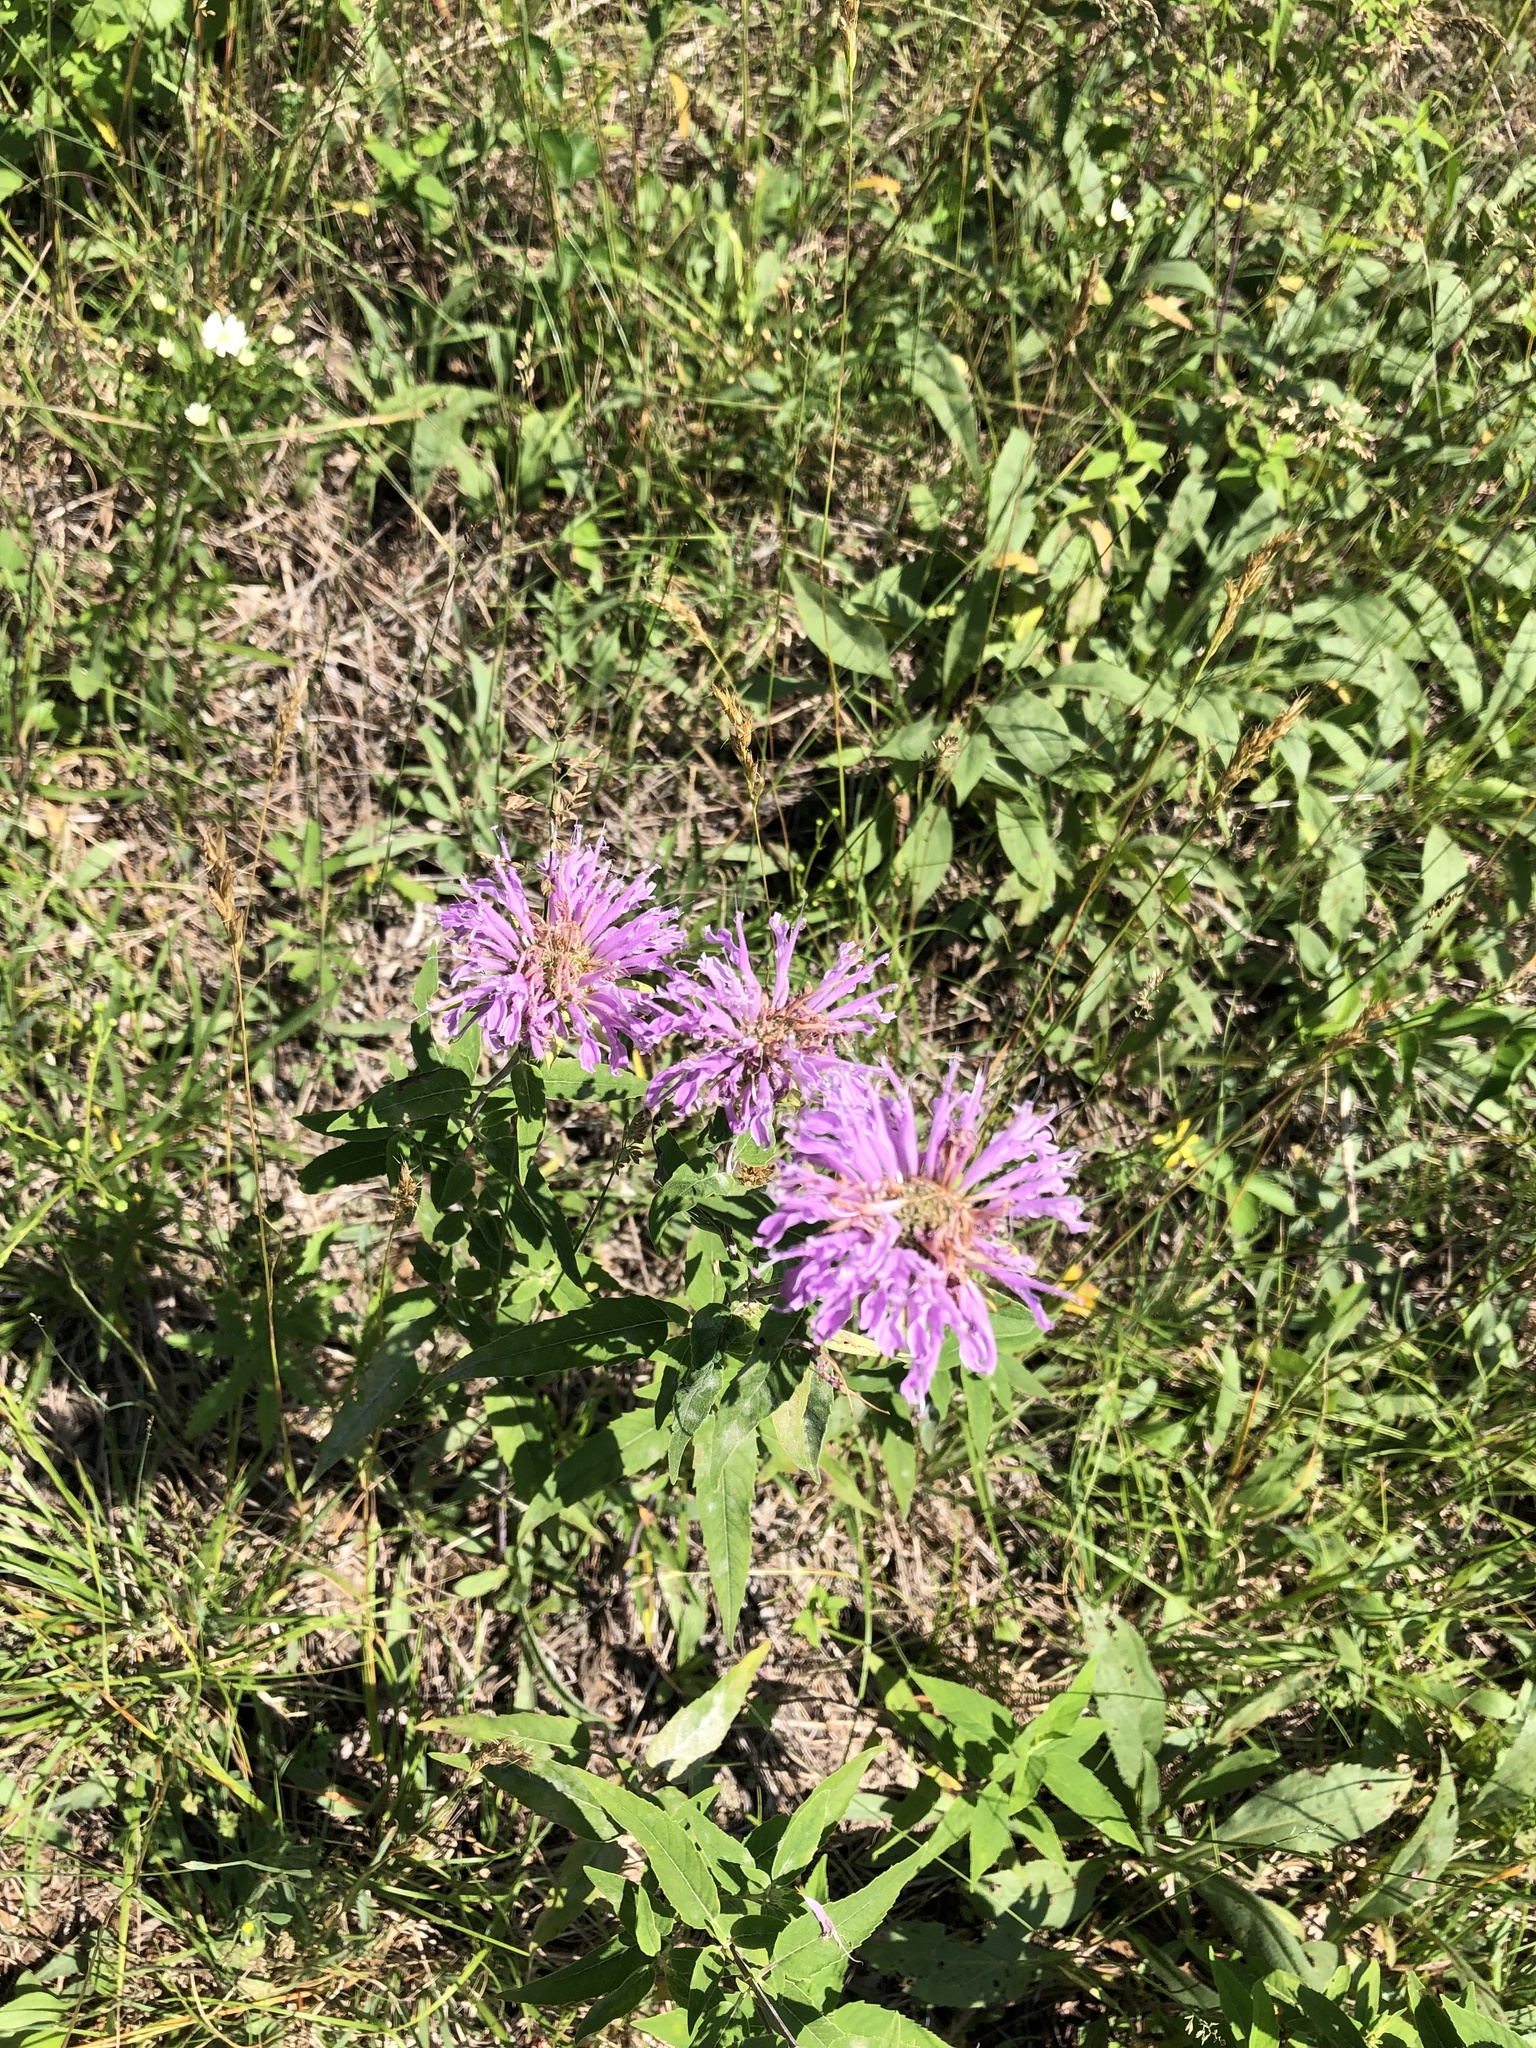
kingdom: Plantae
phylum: Tracheophyta
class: Magnoliopsida
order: Lamiales
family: Lamiaceae
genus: Monarda
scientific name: Monarda fistulosa
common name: Purple beebalm
